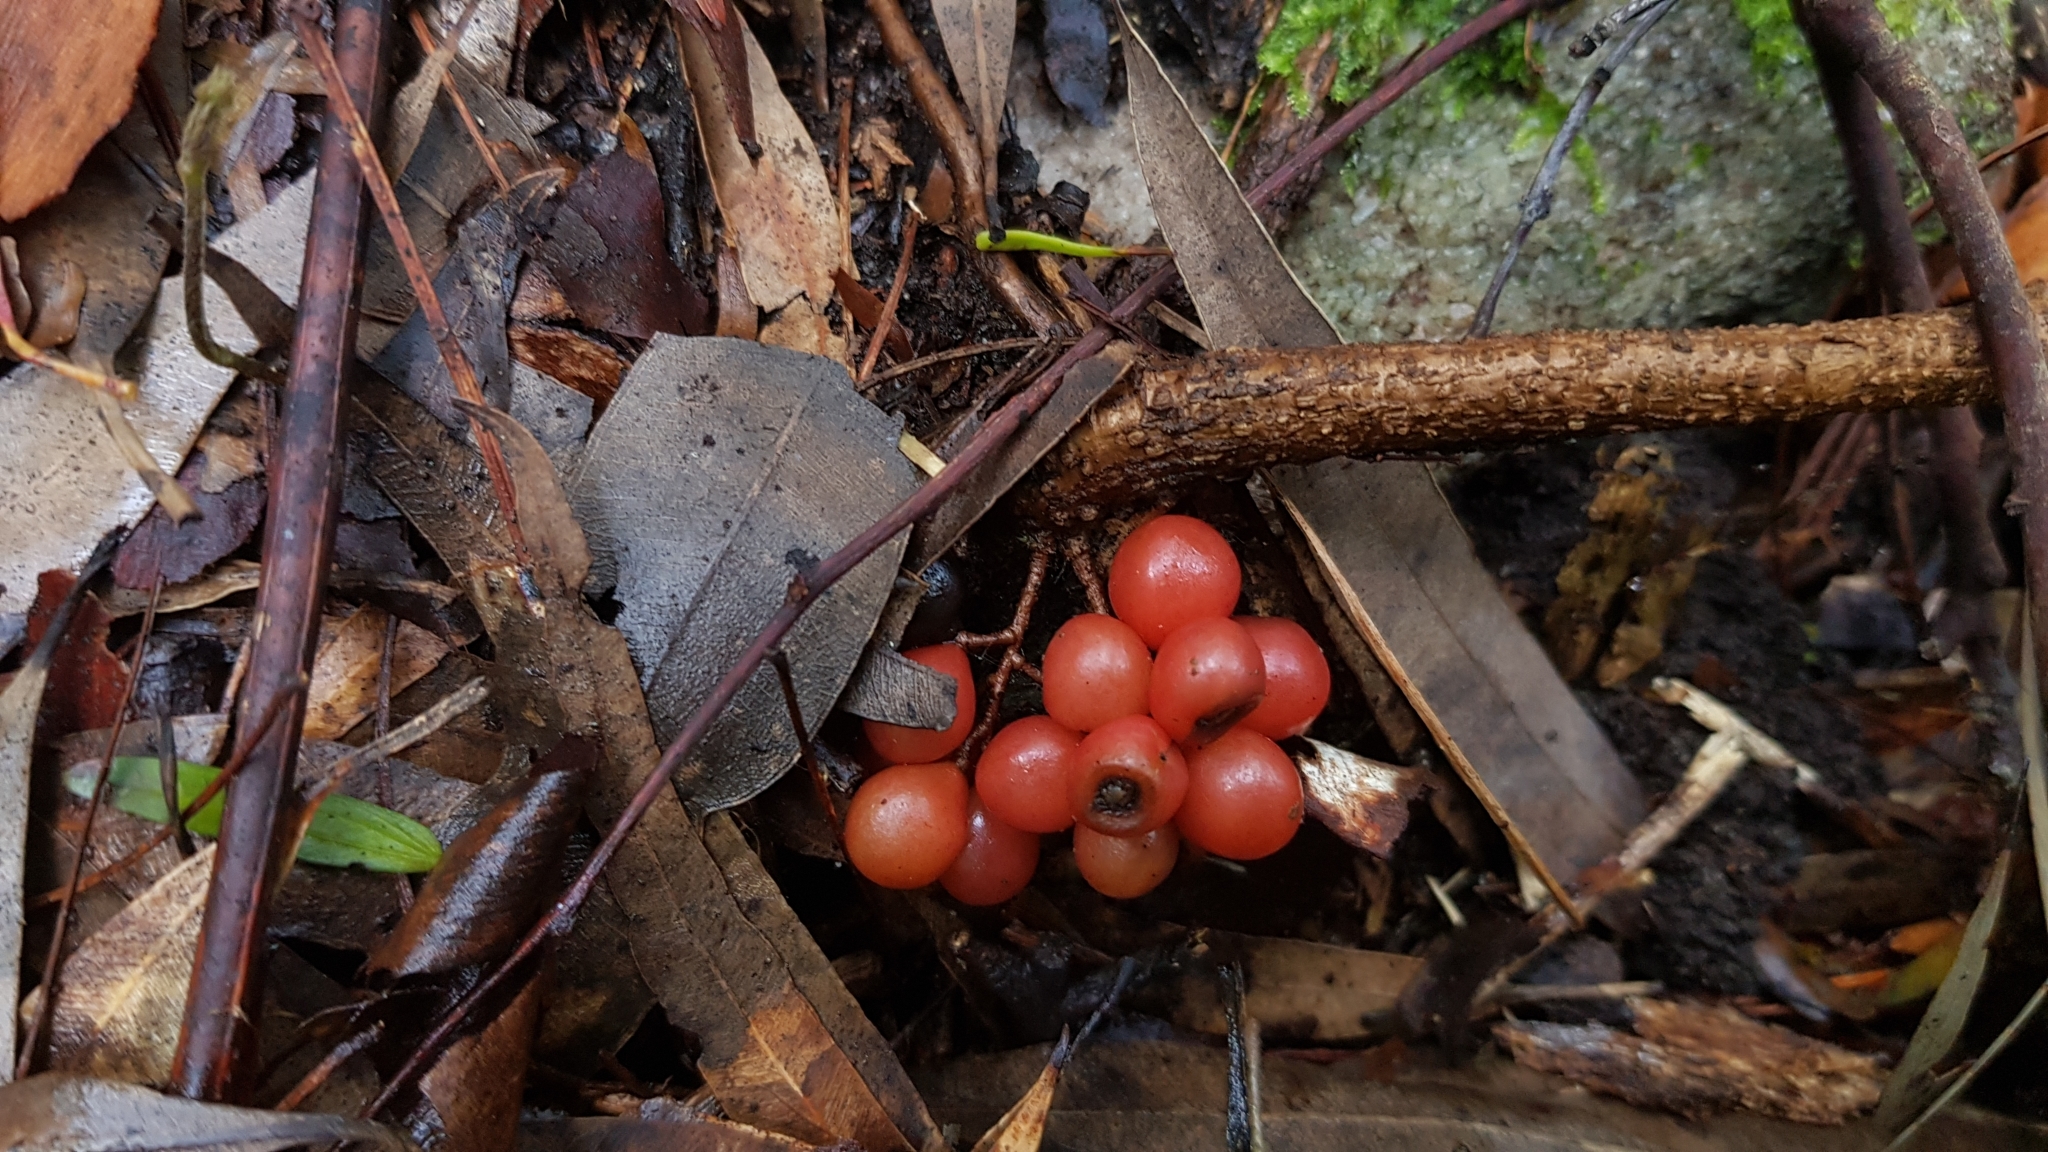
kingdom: Plantae
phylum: Tracheophyta
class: Magnoliopsida
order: Ranunculales
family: Menispermaceae
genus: Sarcopetalum
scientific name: Sarcopetalum harveyanum
